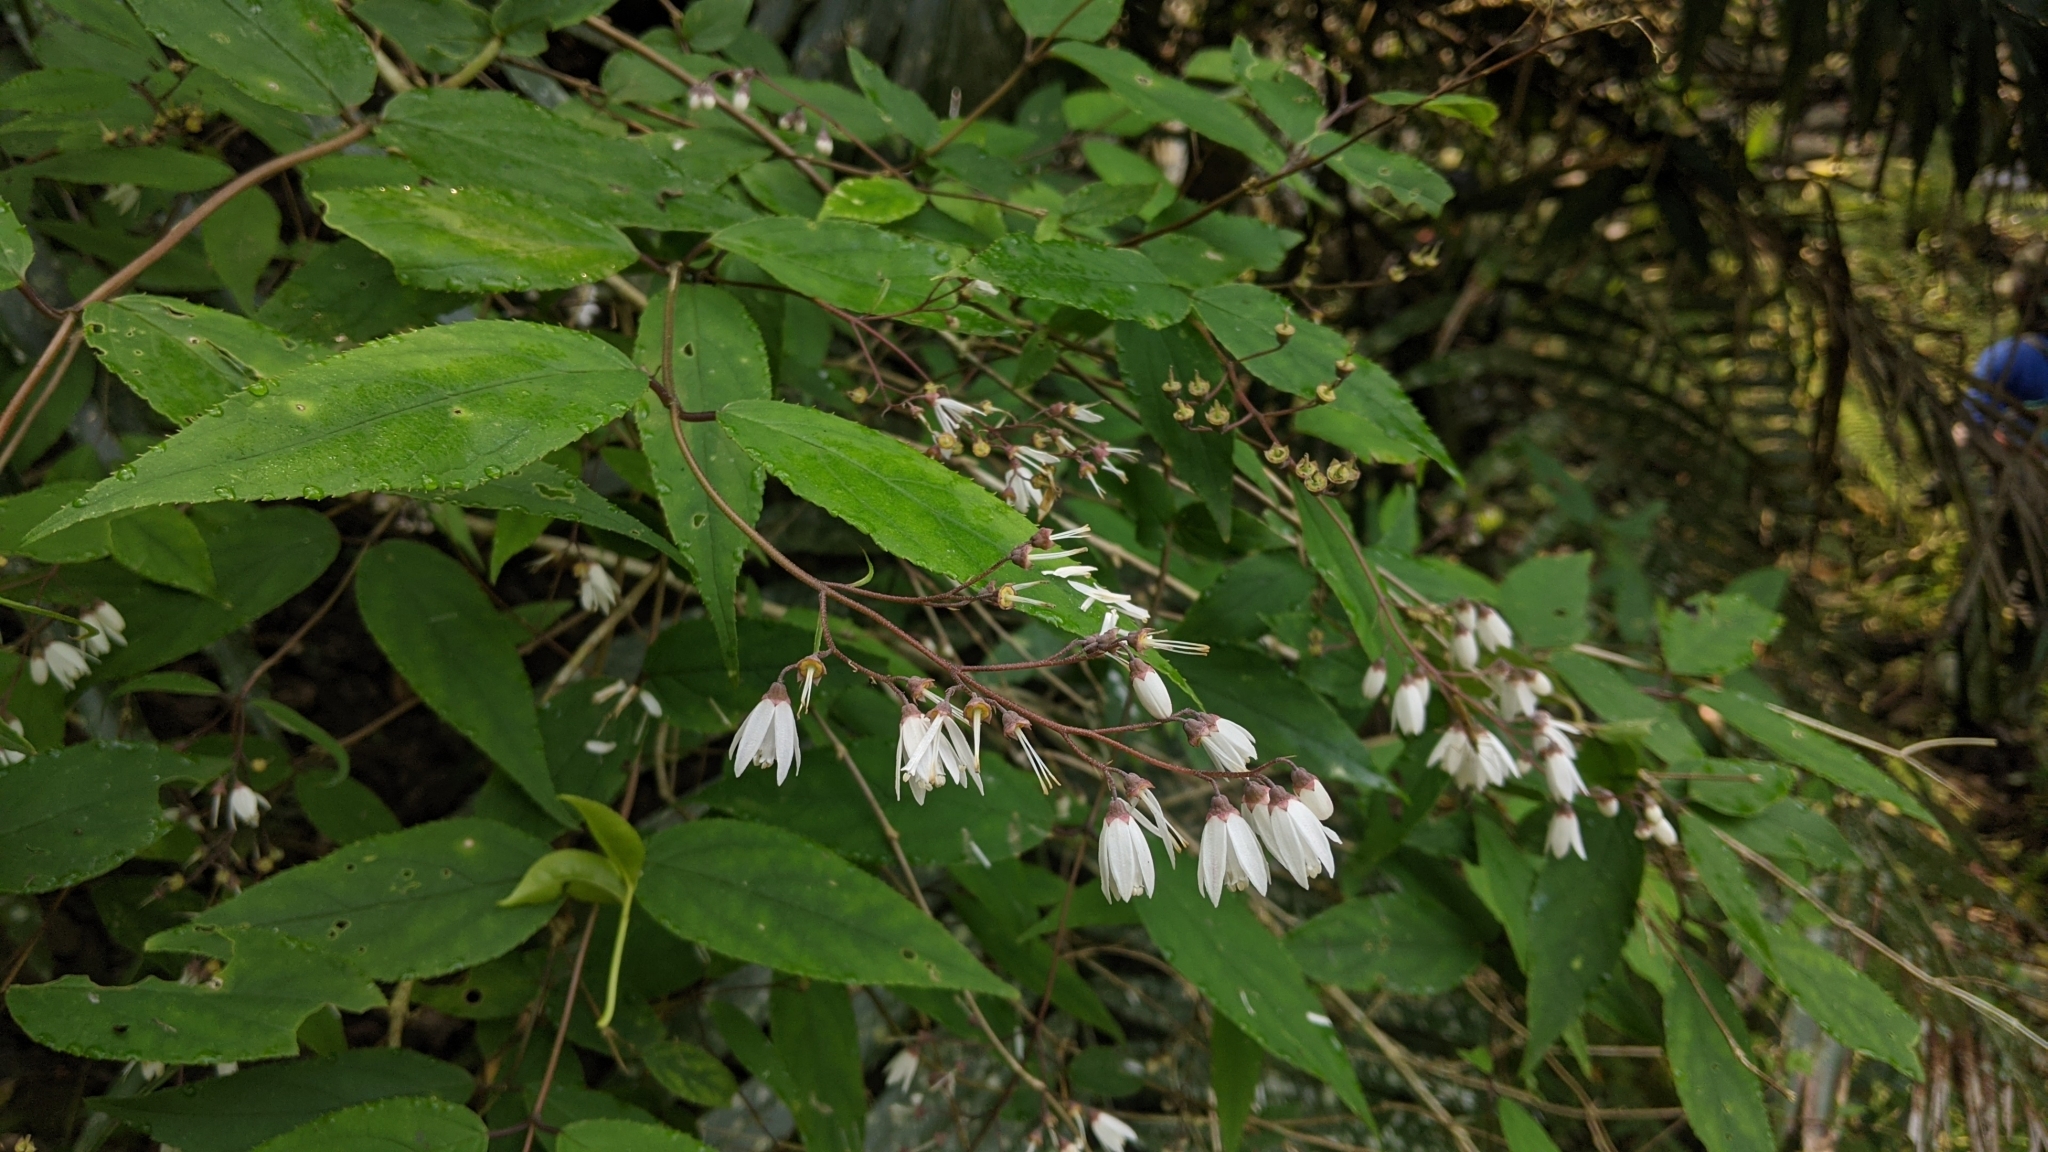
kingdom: Plantae
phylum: Tracheophyta
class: Magnoliopsida
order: Cornales
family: Hydrangeaceae
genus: Deutzia
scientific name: Deutzia taiwanensis
